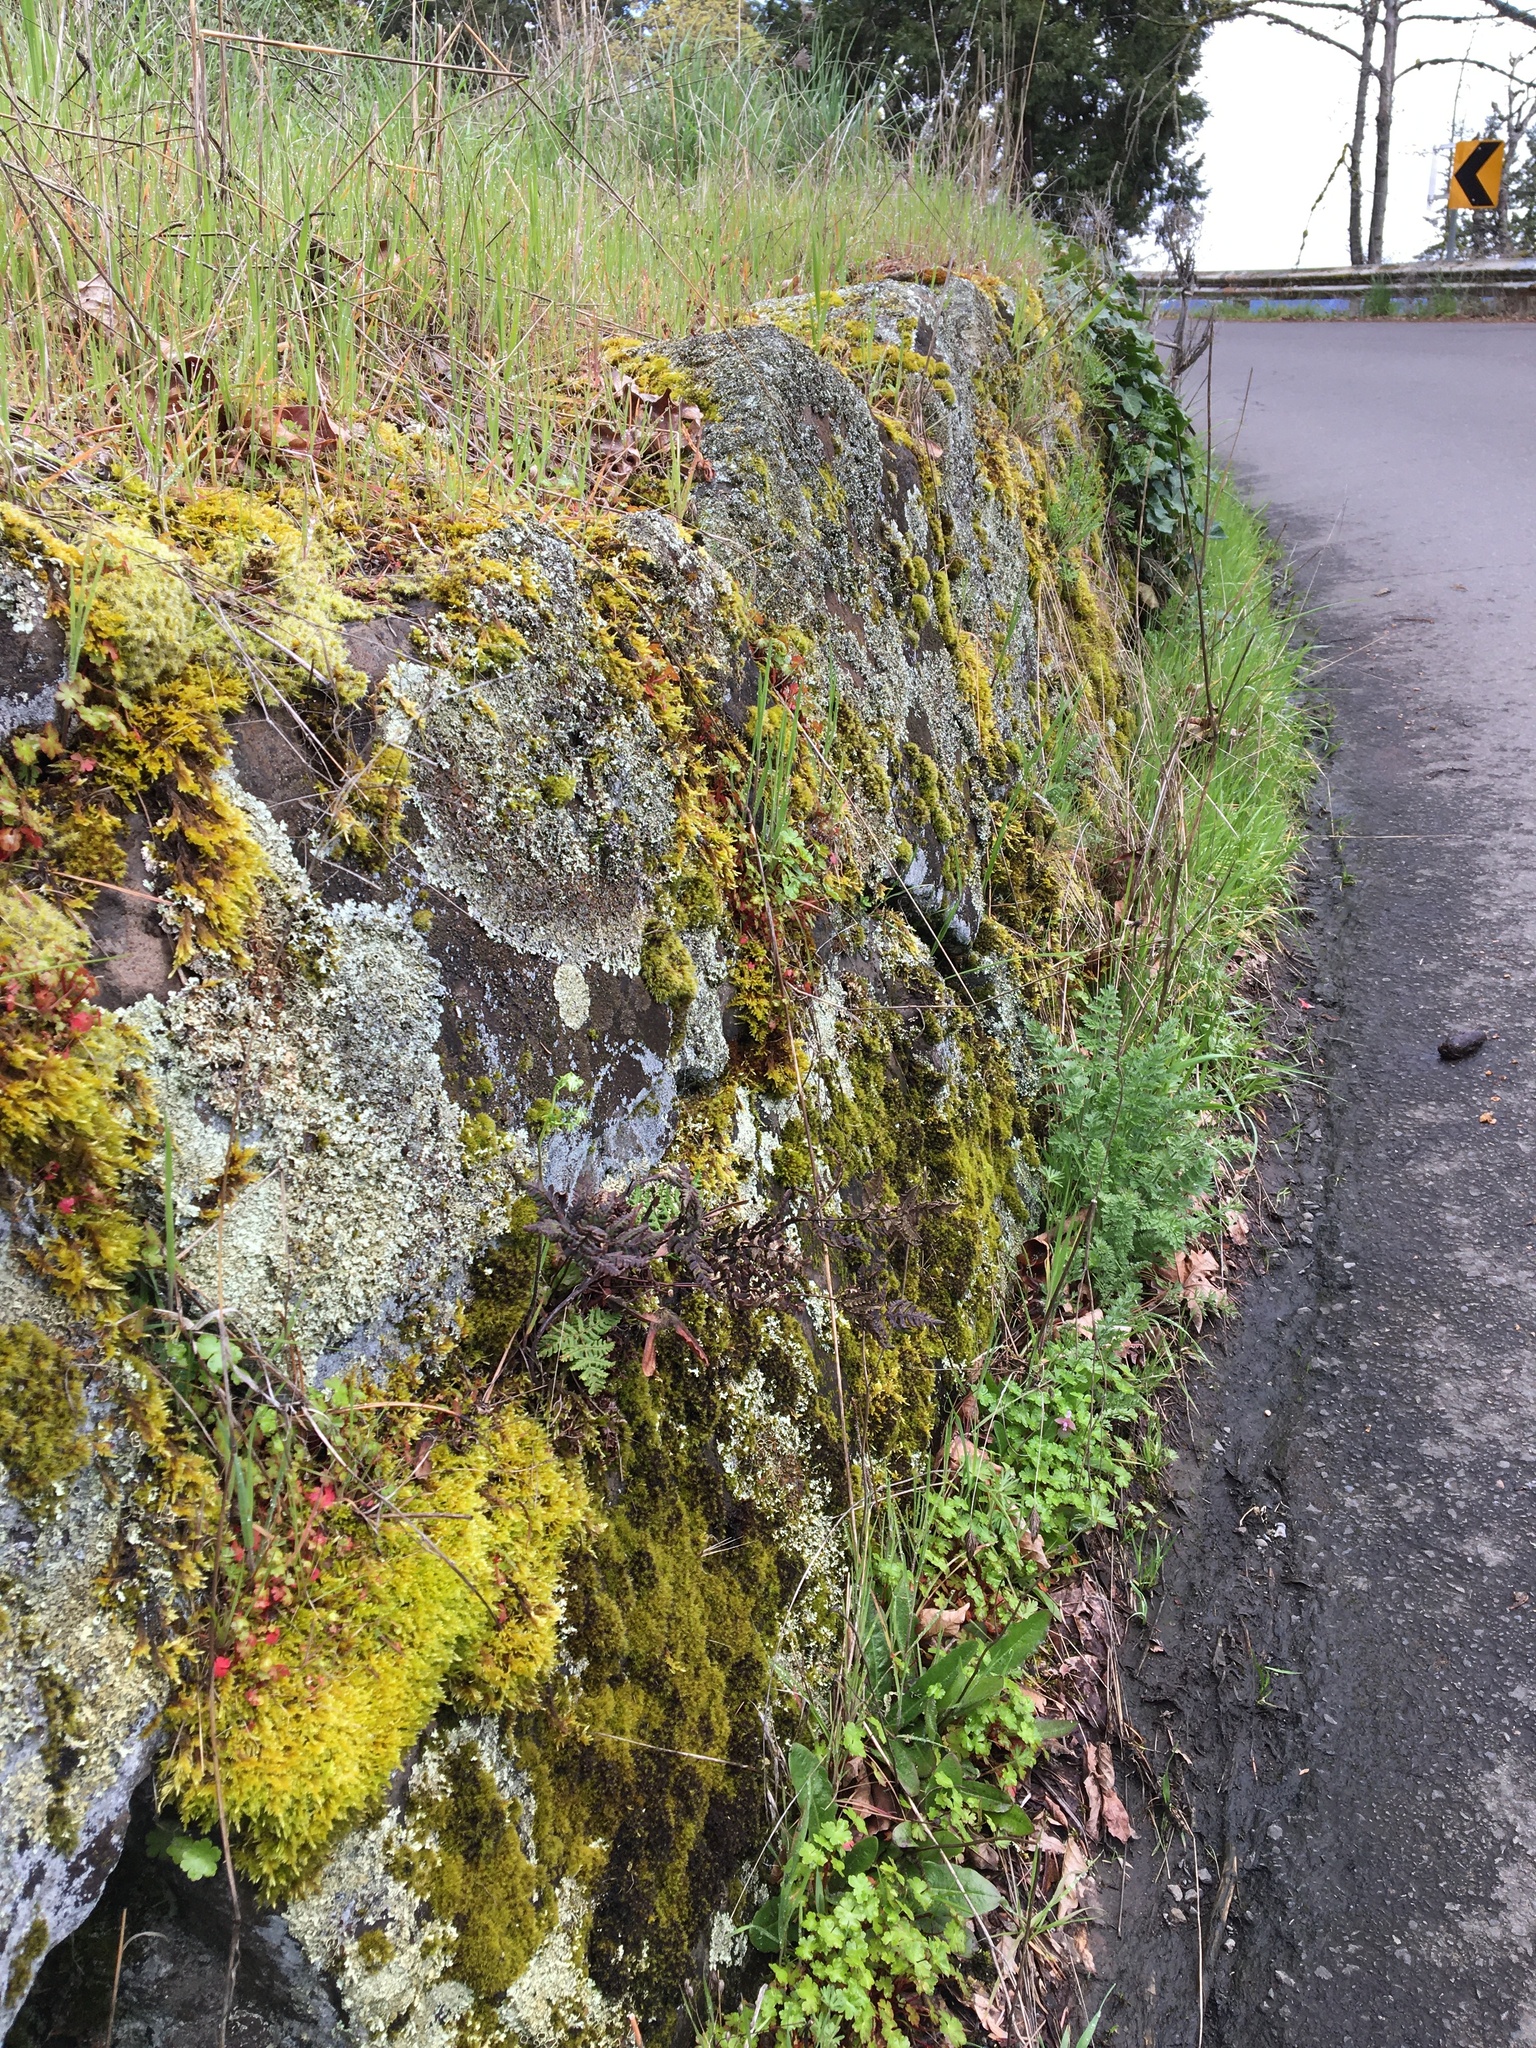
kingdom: Plantae
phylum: Tracheophyta
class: Polypodiopsida
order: Polypodiales
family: Pteridaceae
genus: Pentagramma
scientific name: Pentagramma triangularis
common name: Gold fern
